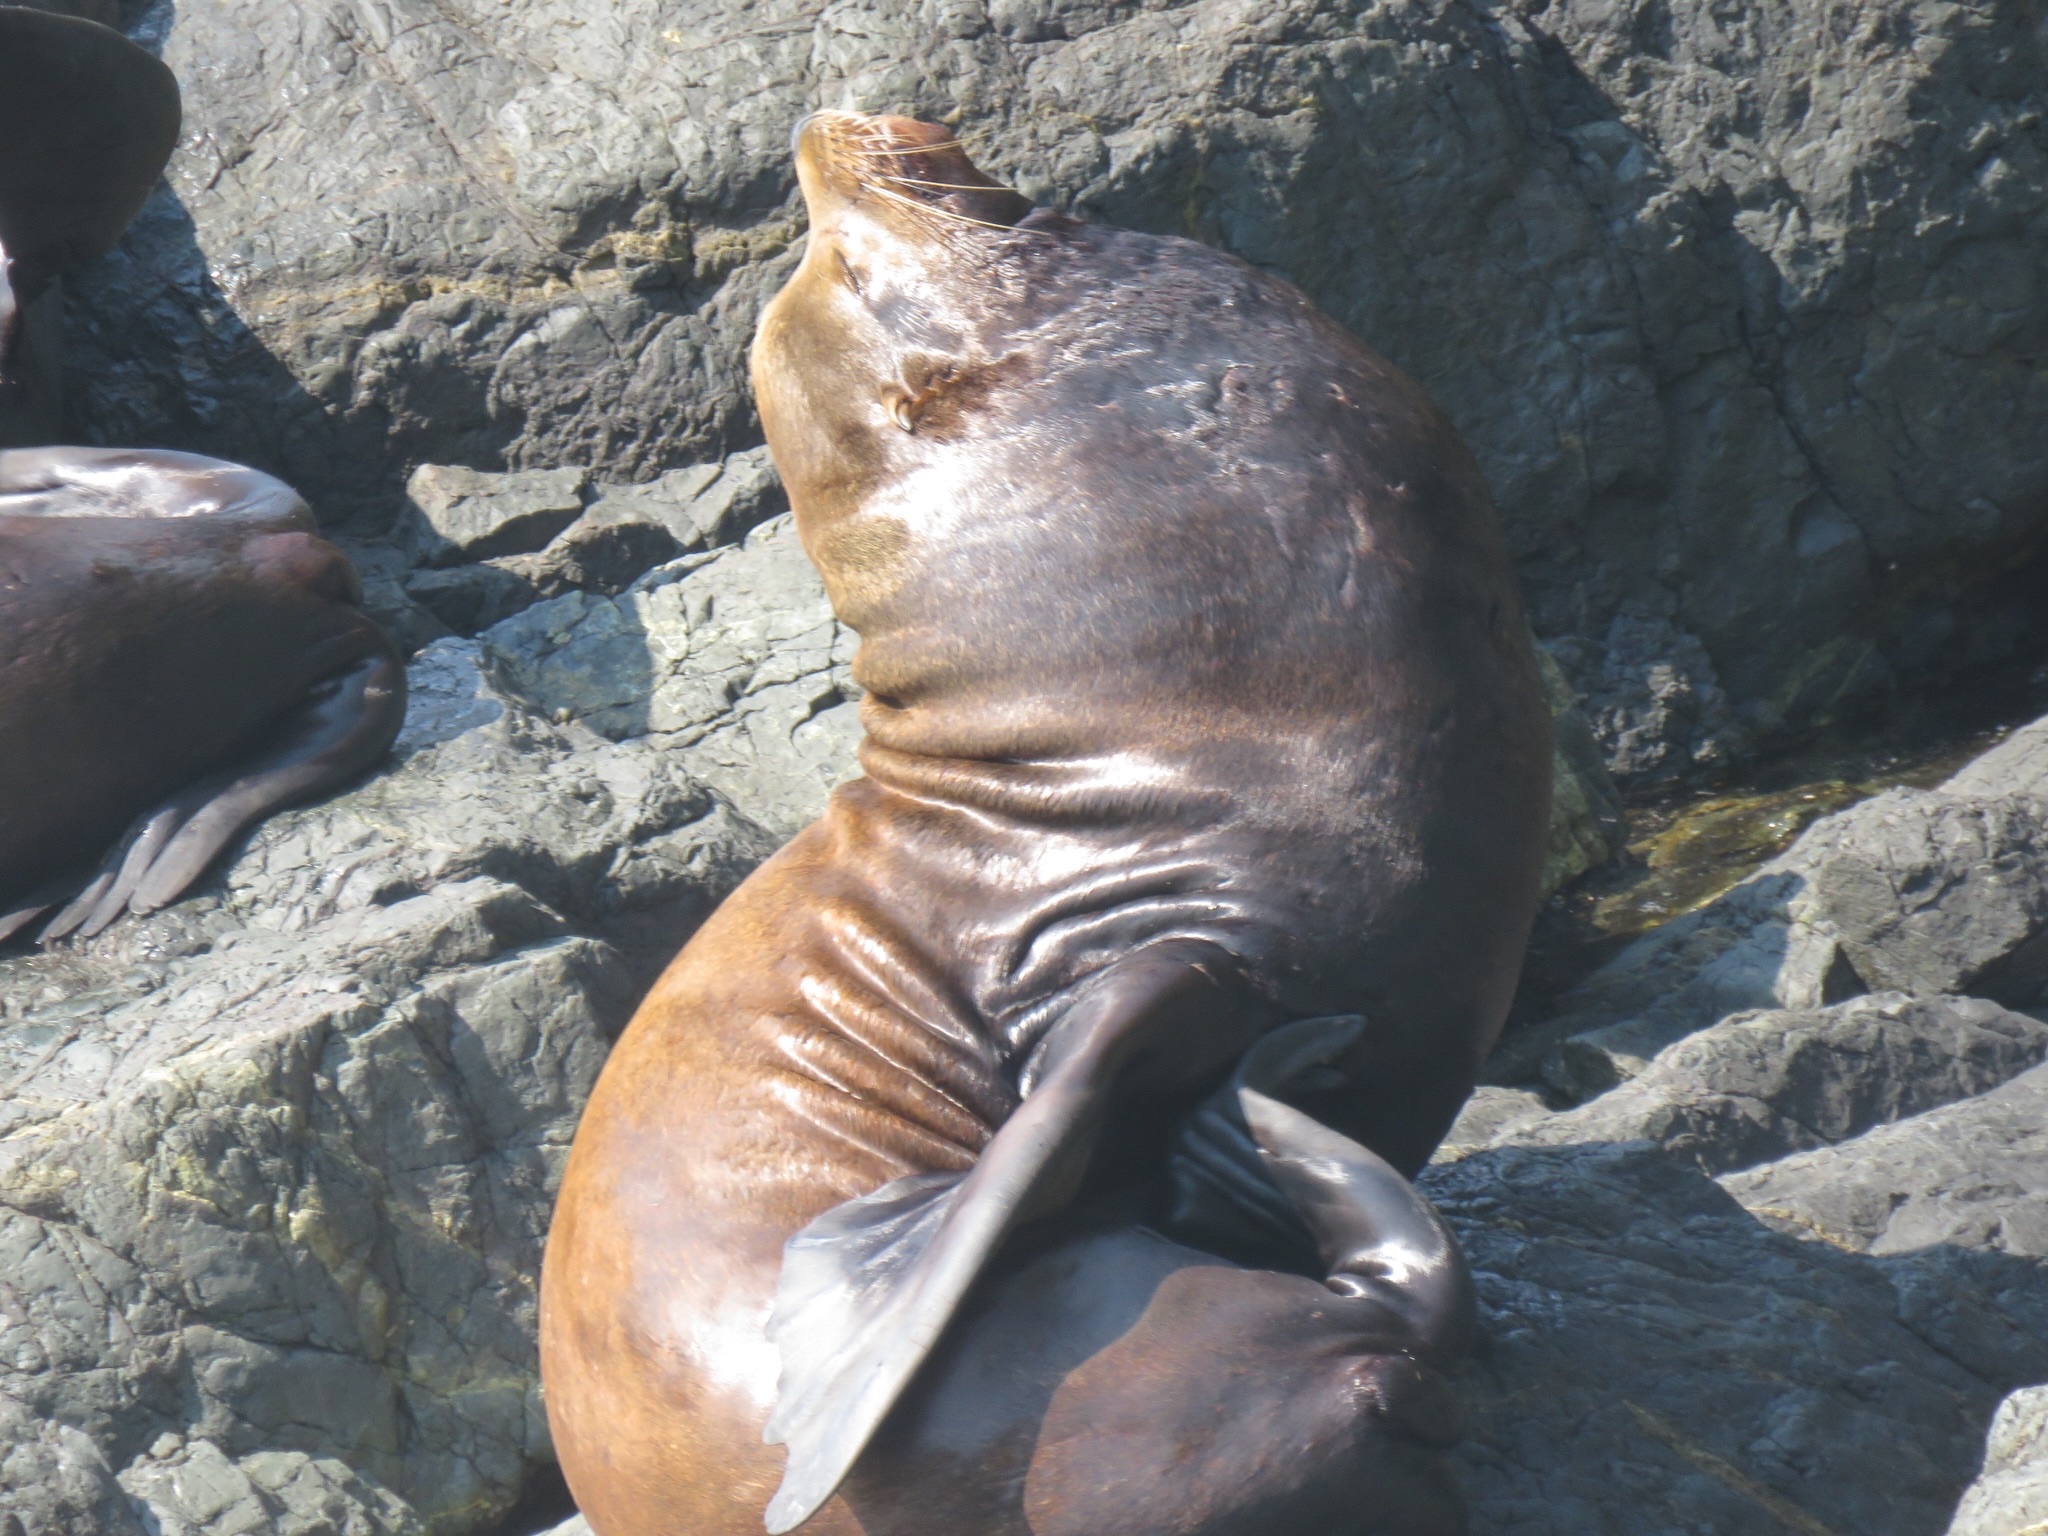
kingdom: Animalia
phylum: Chordata
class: Mammalia
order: Carnivora
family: Otariidae
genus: Zalophus
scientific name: Zalophus californianus
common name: California sea lion
